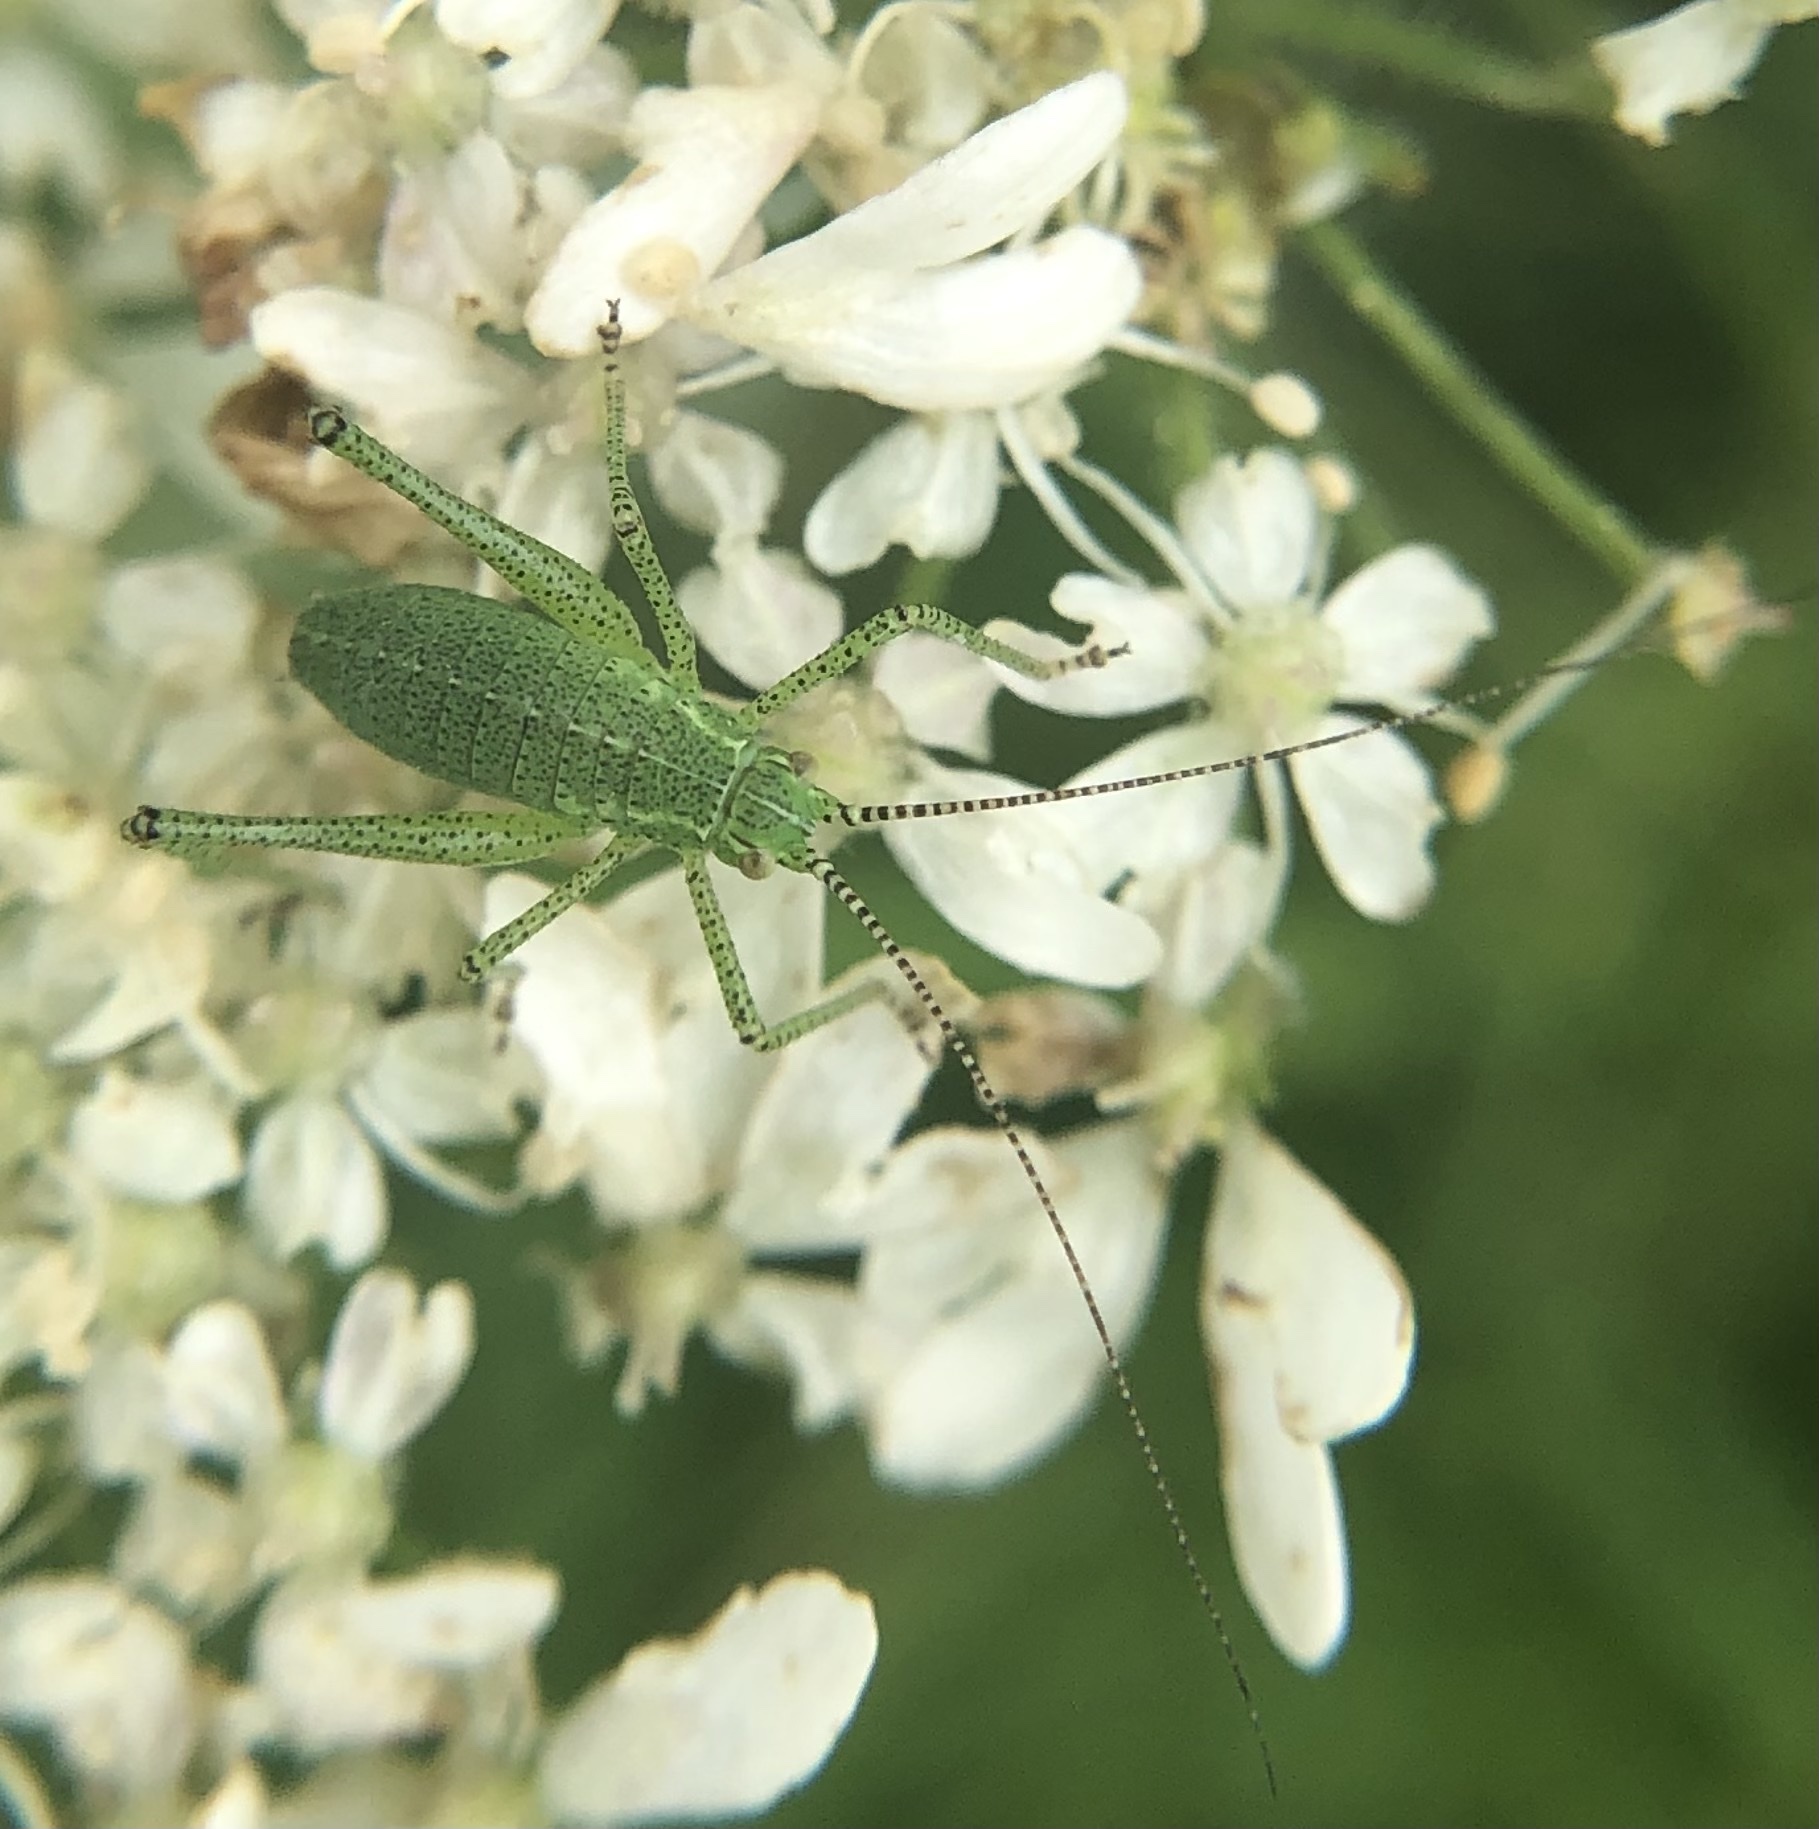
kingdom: Animalia
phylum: Arthropoda
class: Insecta
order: Orthoptera
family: Tettigoniidae
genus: Leptophyes
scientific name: Leptophyes punctatissima
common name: Speckled bush-cricket
